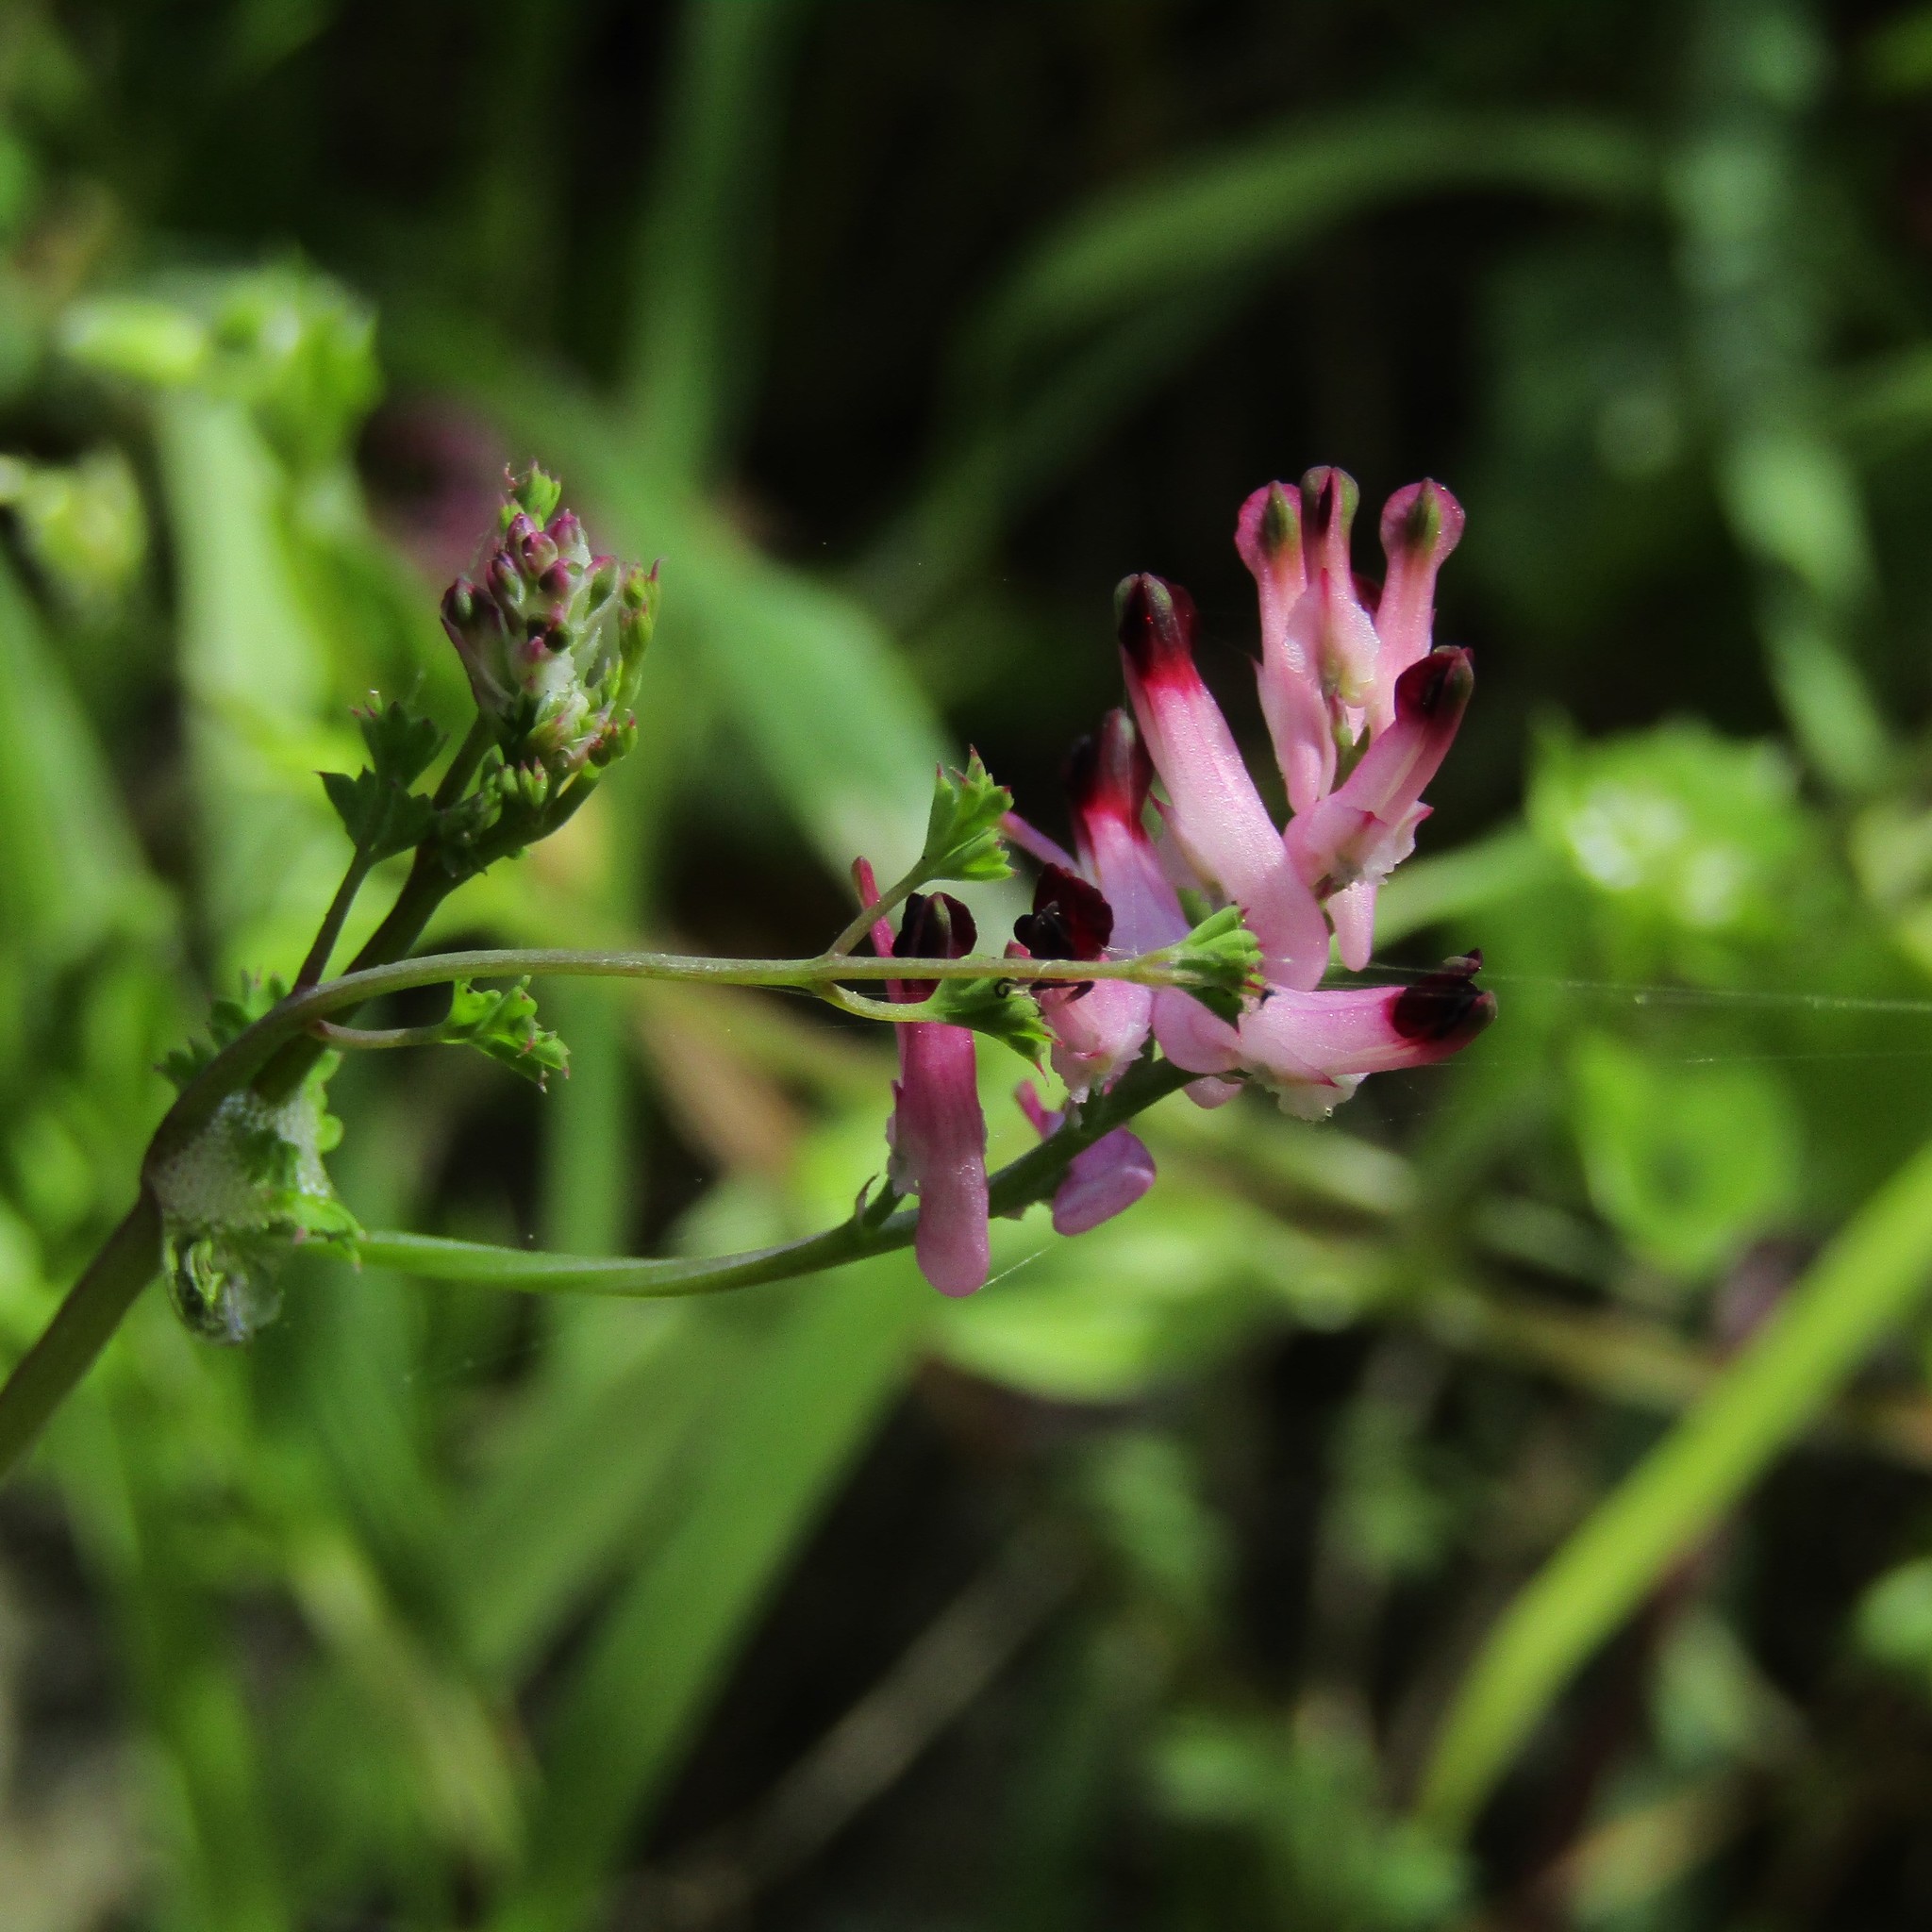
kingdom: Plantae
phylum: Tracheophyta
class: Magnoliopsida
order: Ranunculales
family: Papaveraceae
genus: Fumaria
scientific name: Fumaria muralis
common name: Common ramping-fumitory
